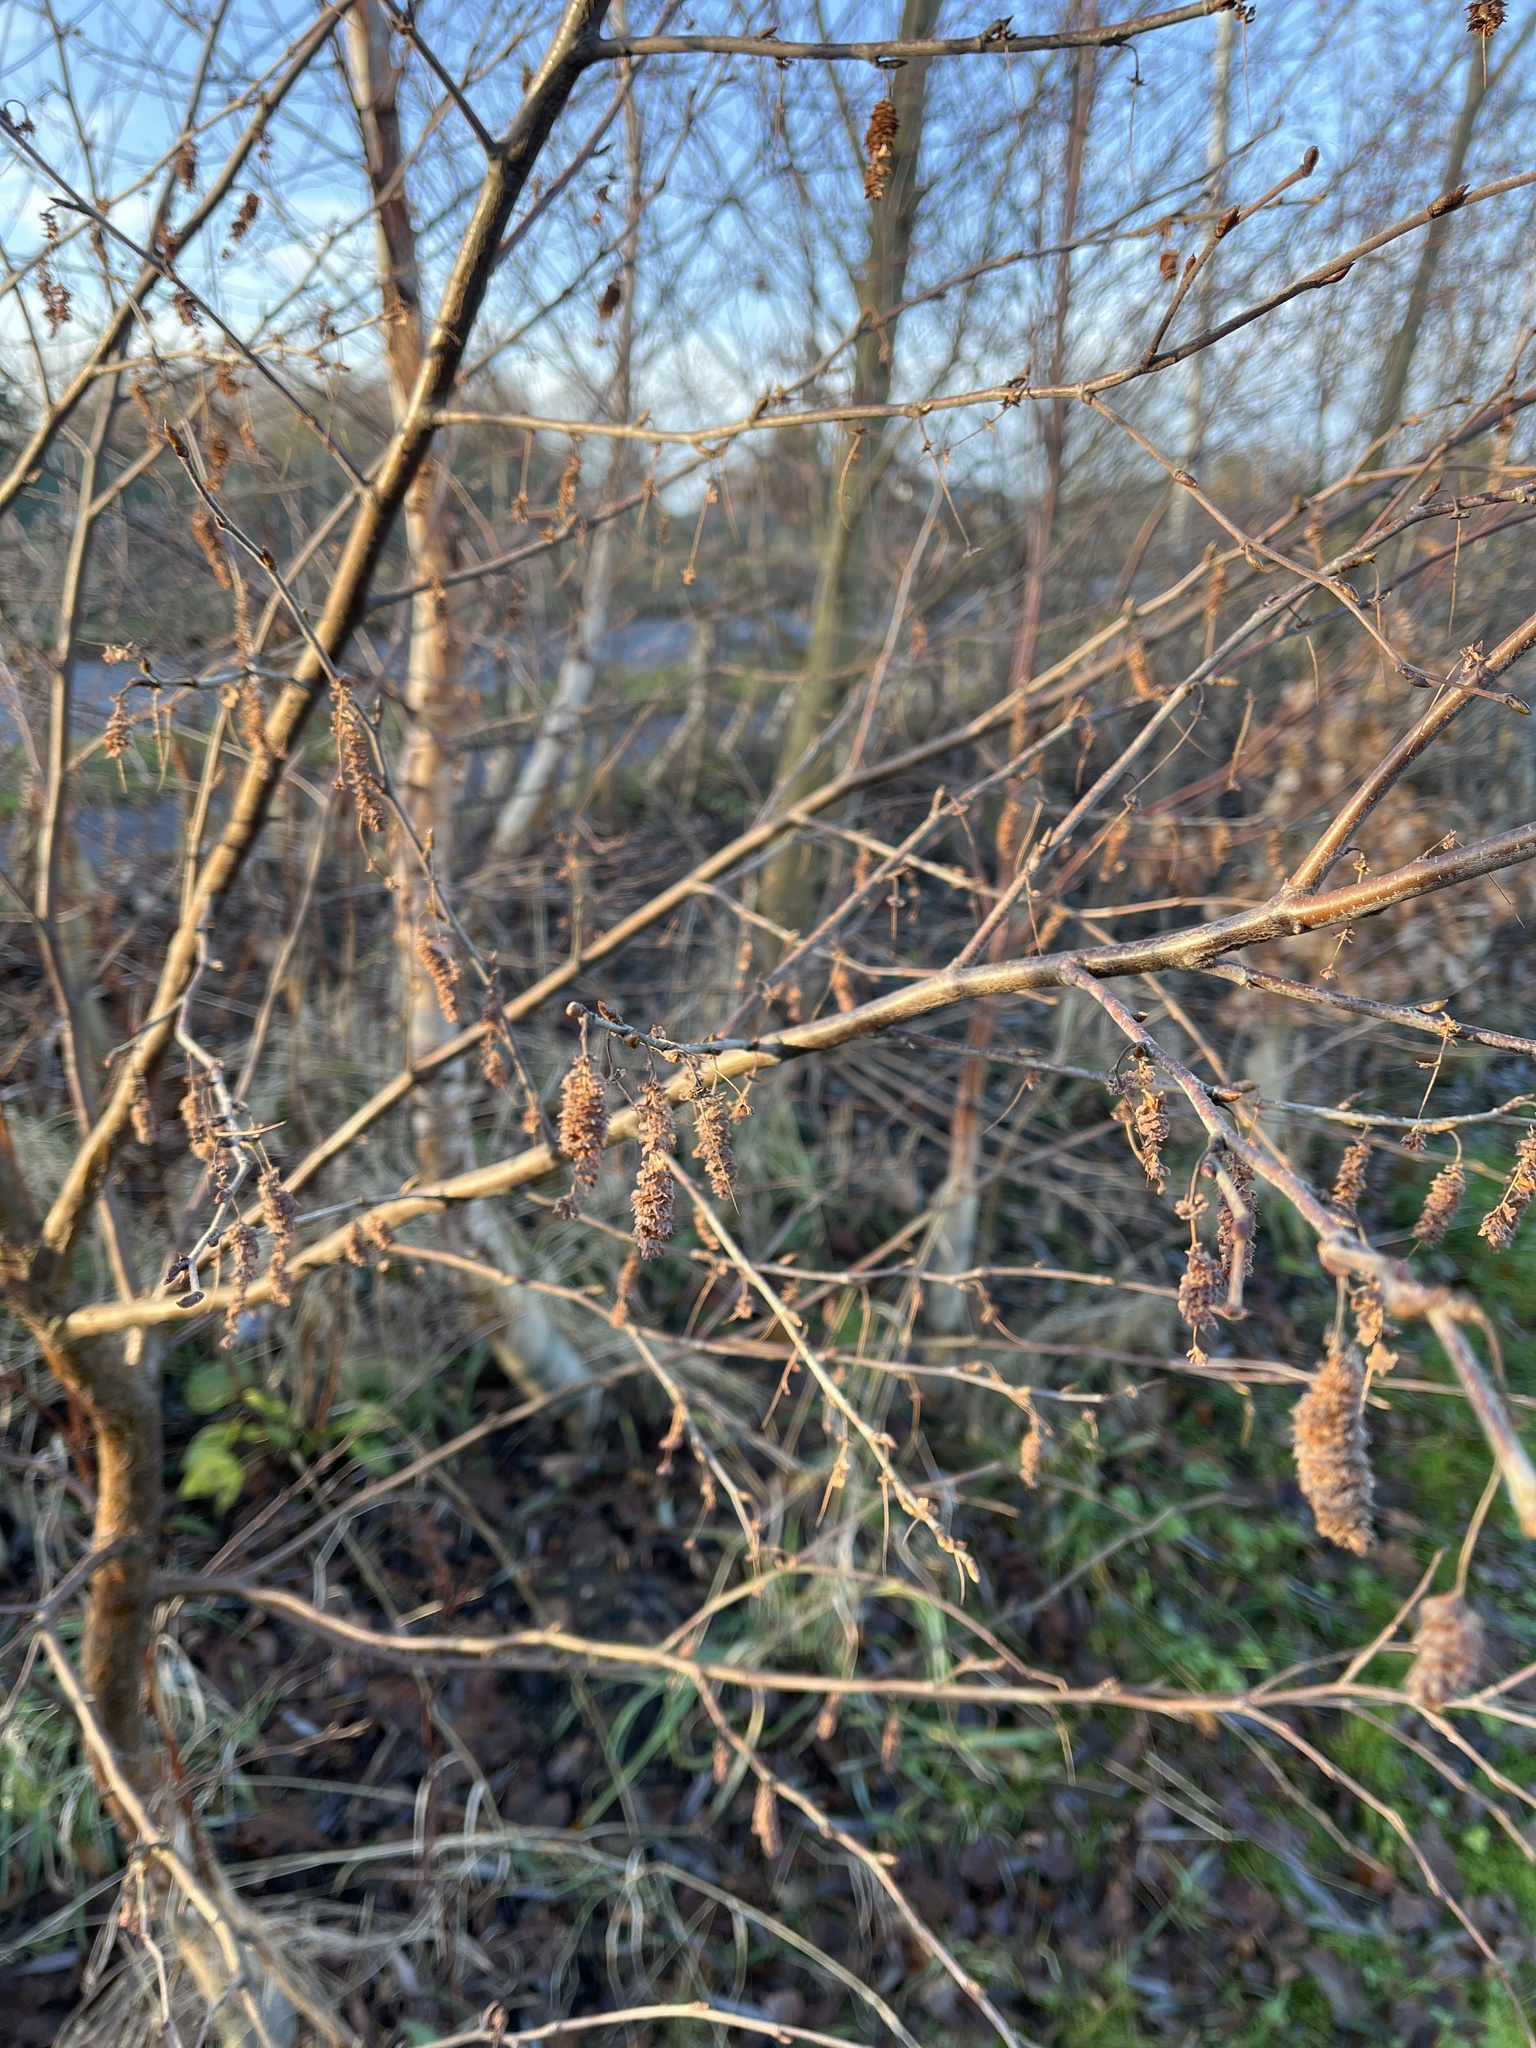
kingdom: Plantae
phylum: Tracheophyta
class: Magnoliopsida
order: Fagales
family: Betulaceae
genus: Corylus
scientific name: Corylus avellana
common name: European hazel
